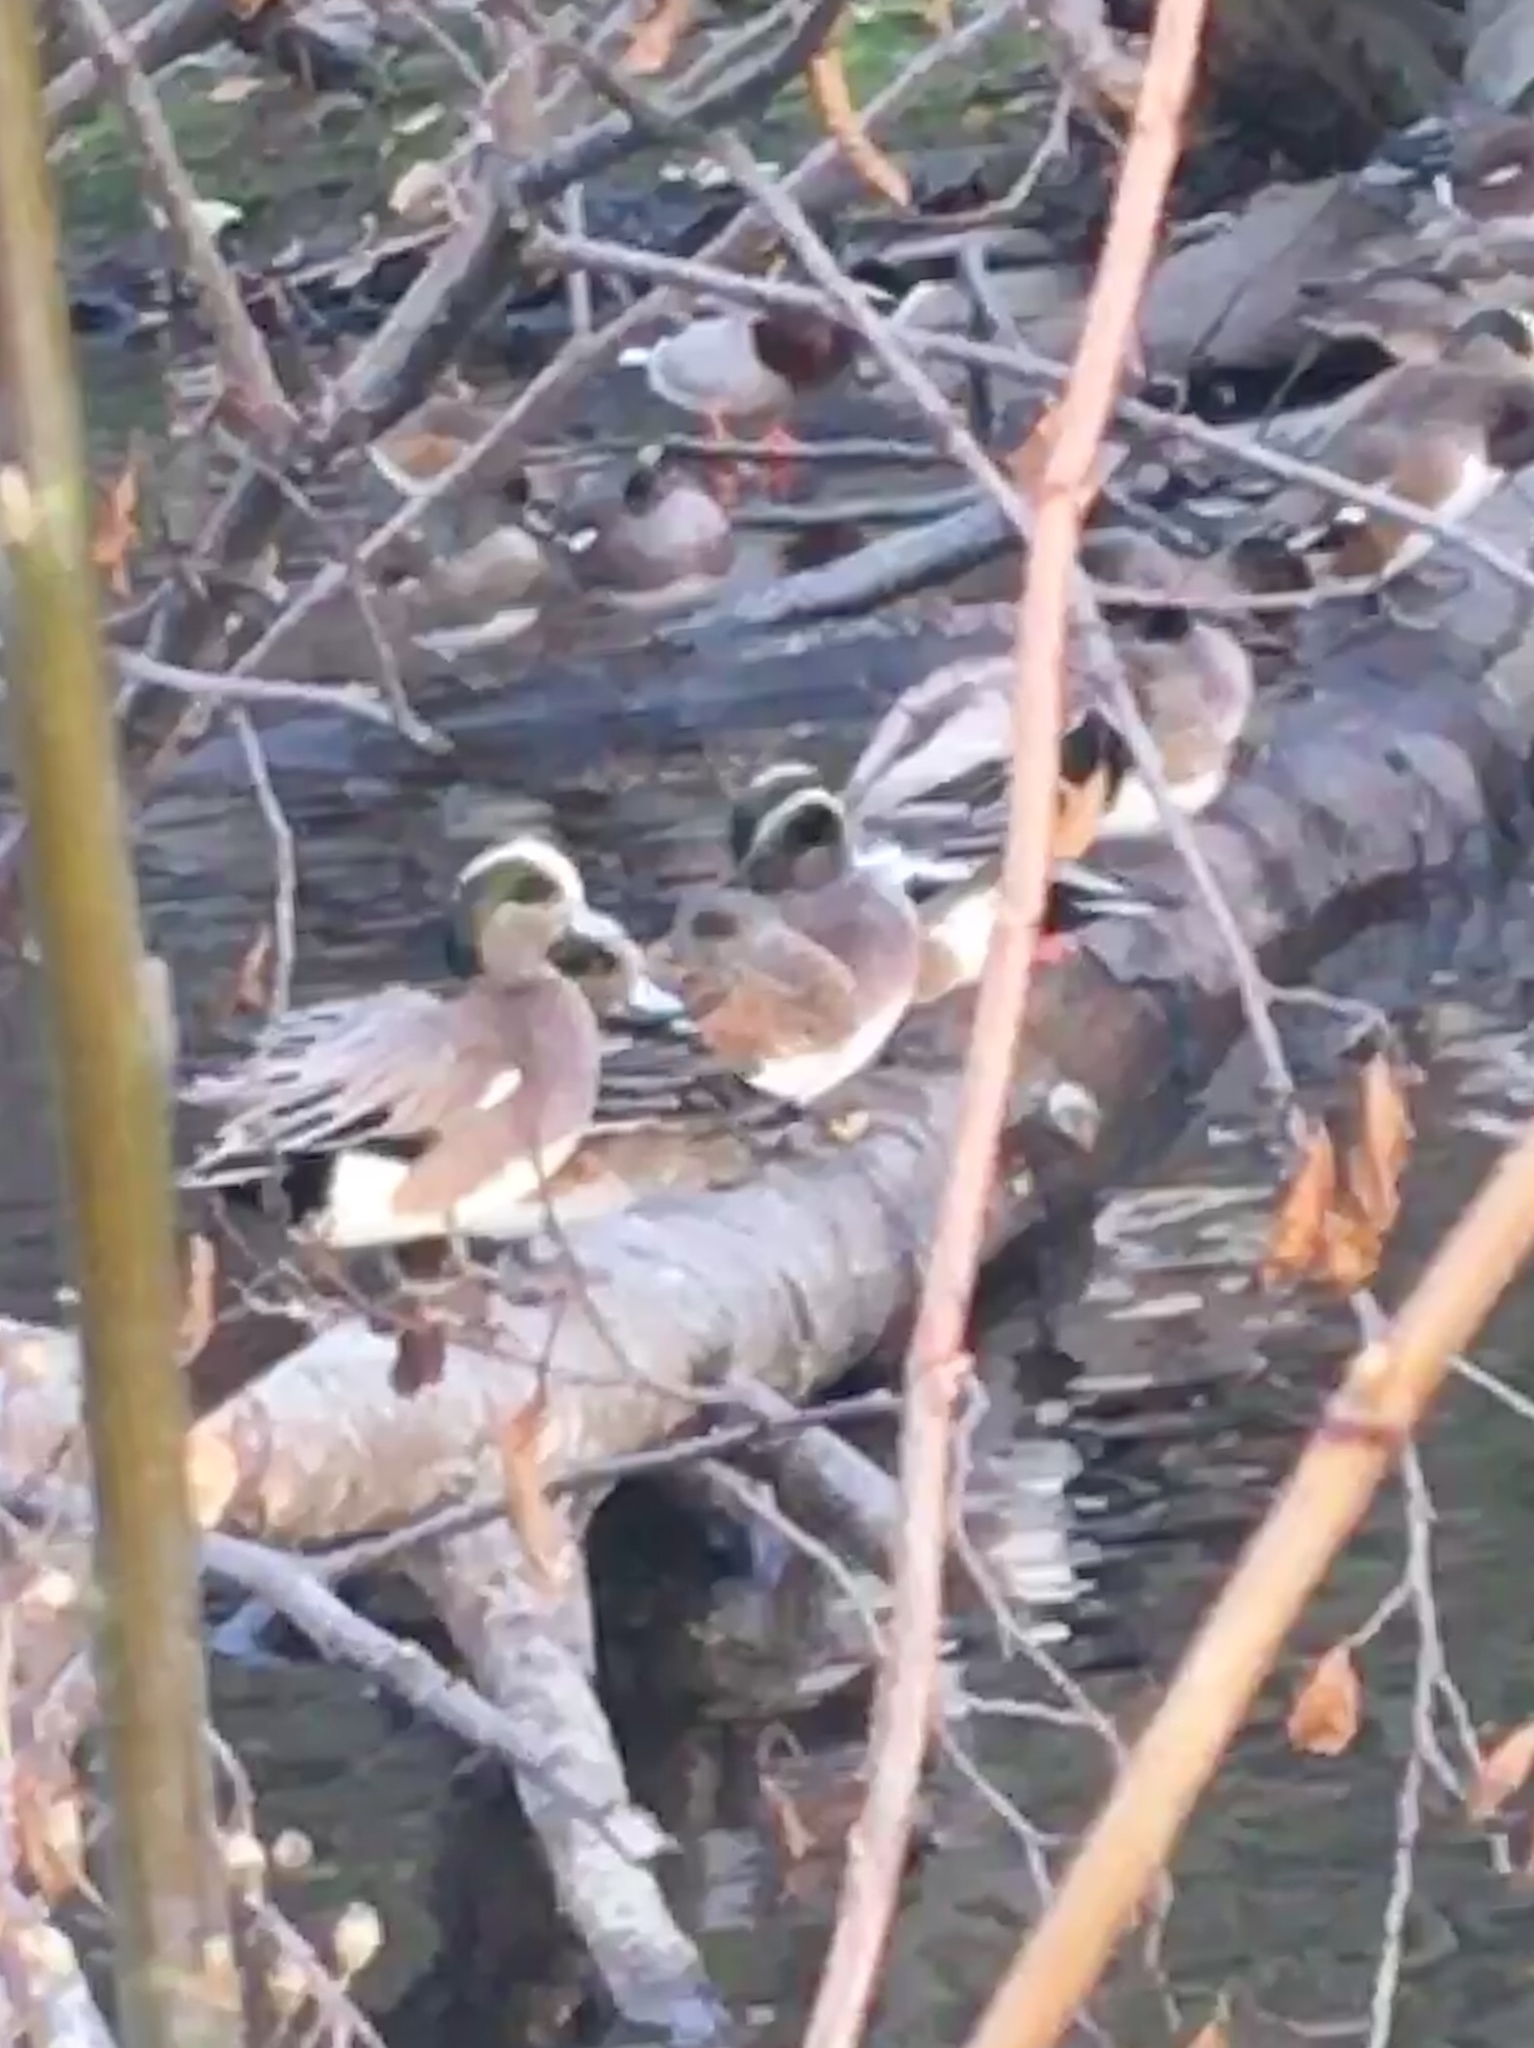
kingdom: Animalia
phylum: Chordata
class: Aves
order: Anseriformes
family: Anatidae
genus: Mareca
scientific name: Mareca americana
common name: American wigeon
